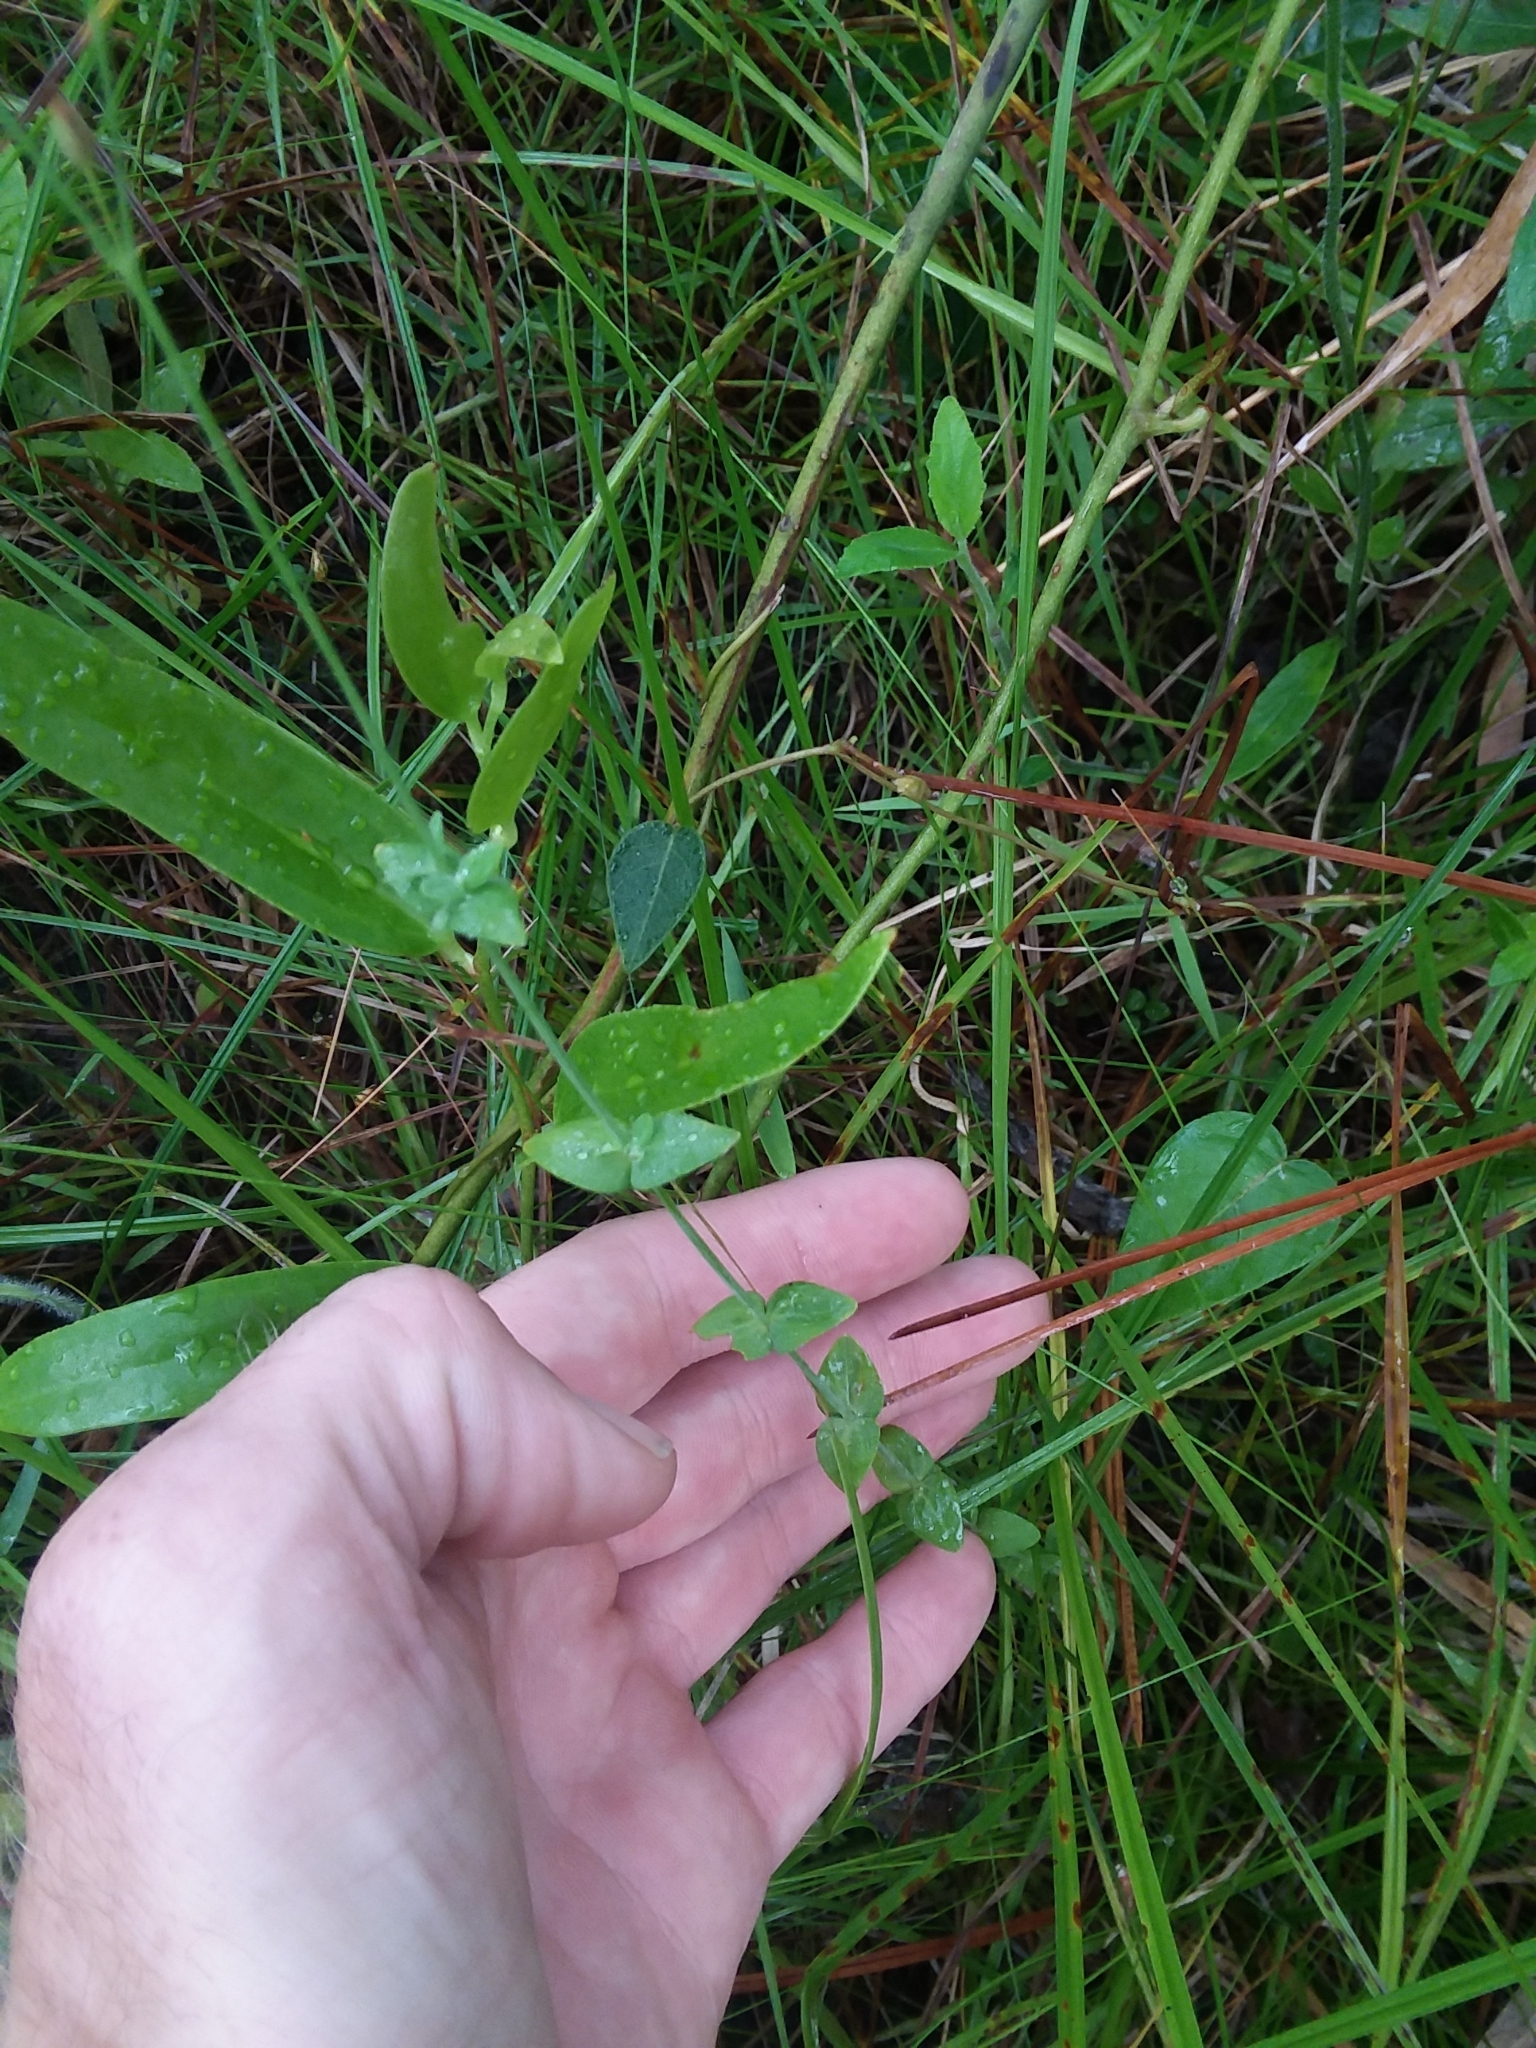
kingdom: Plantae
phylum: Tracheophyta
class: Magnoliopsida
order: Malpighiales
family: Hypericaceae
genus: Hypericum
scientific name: Hypericum gymnanthum
